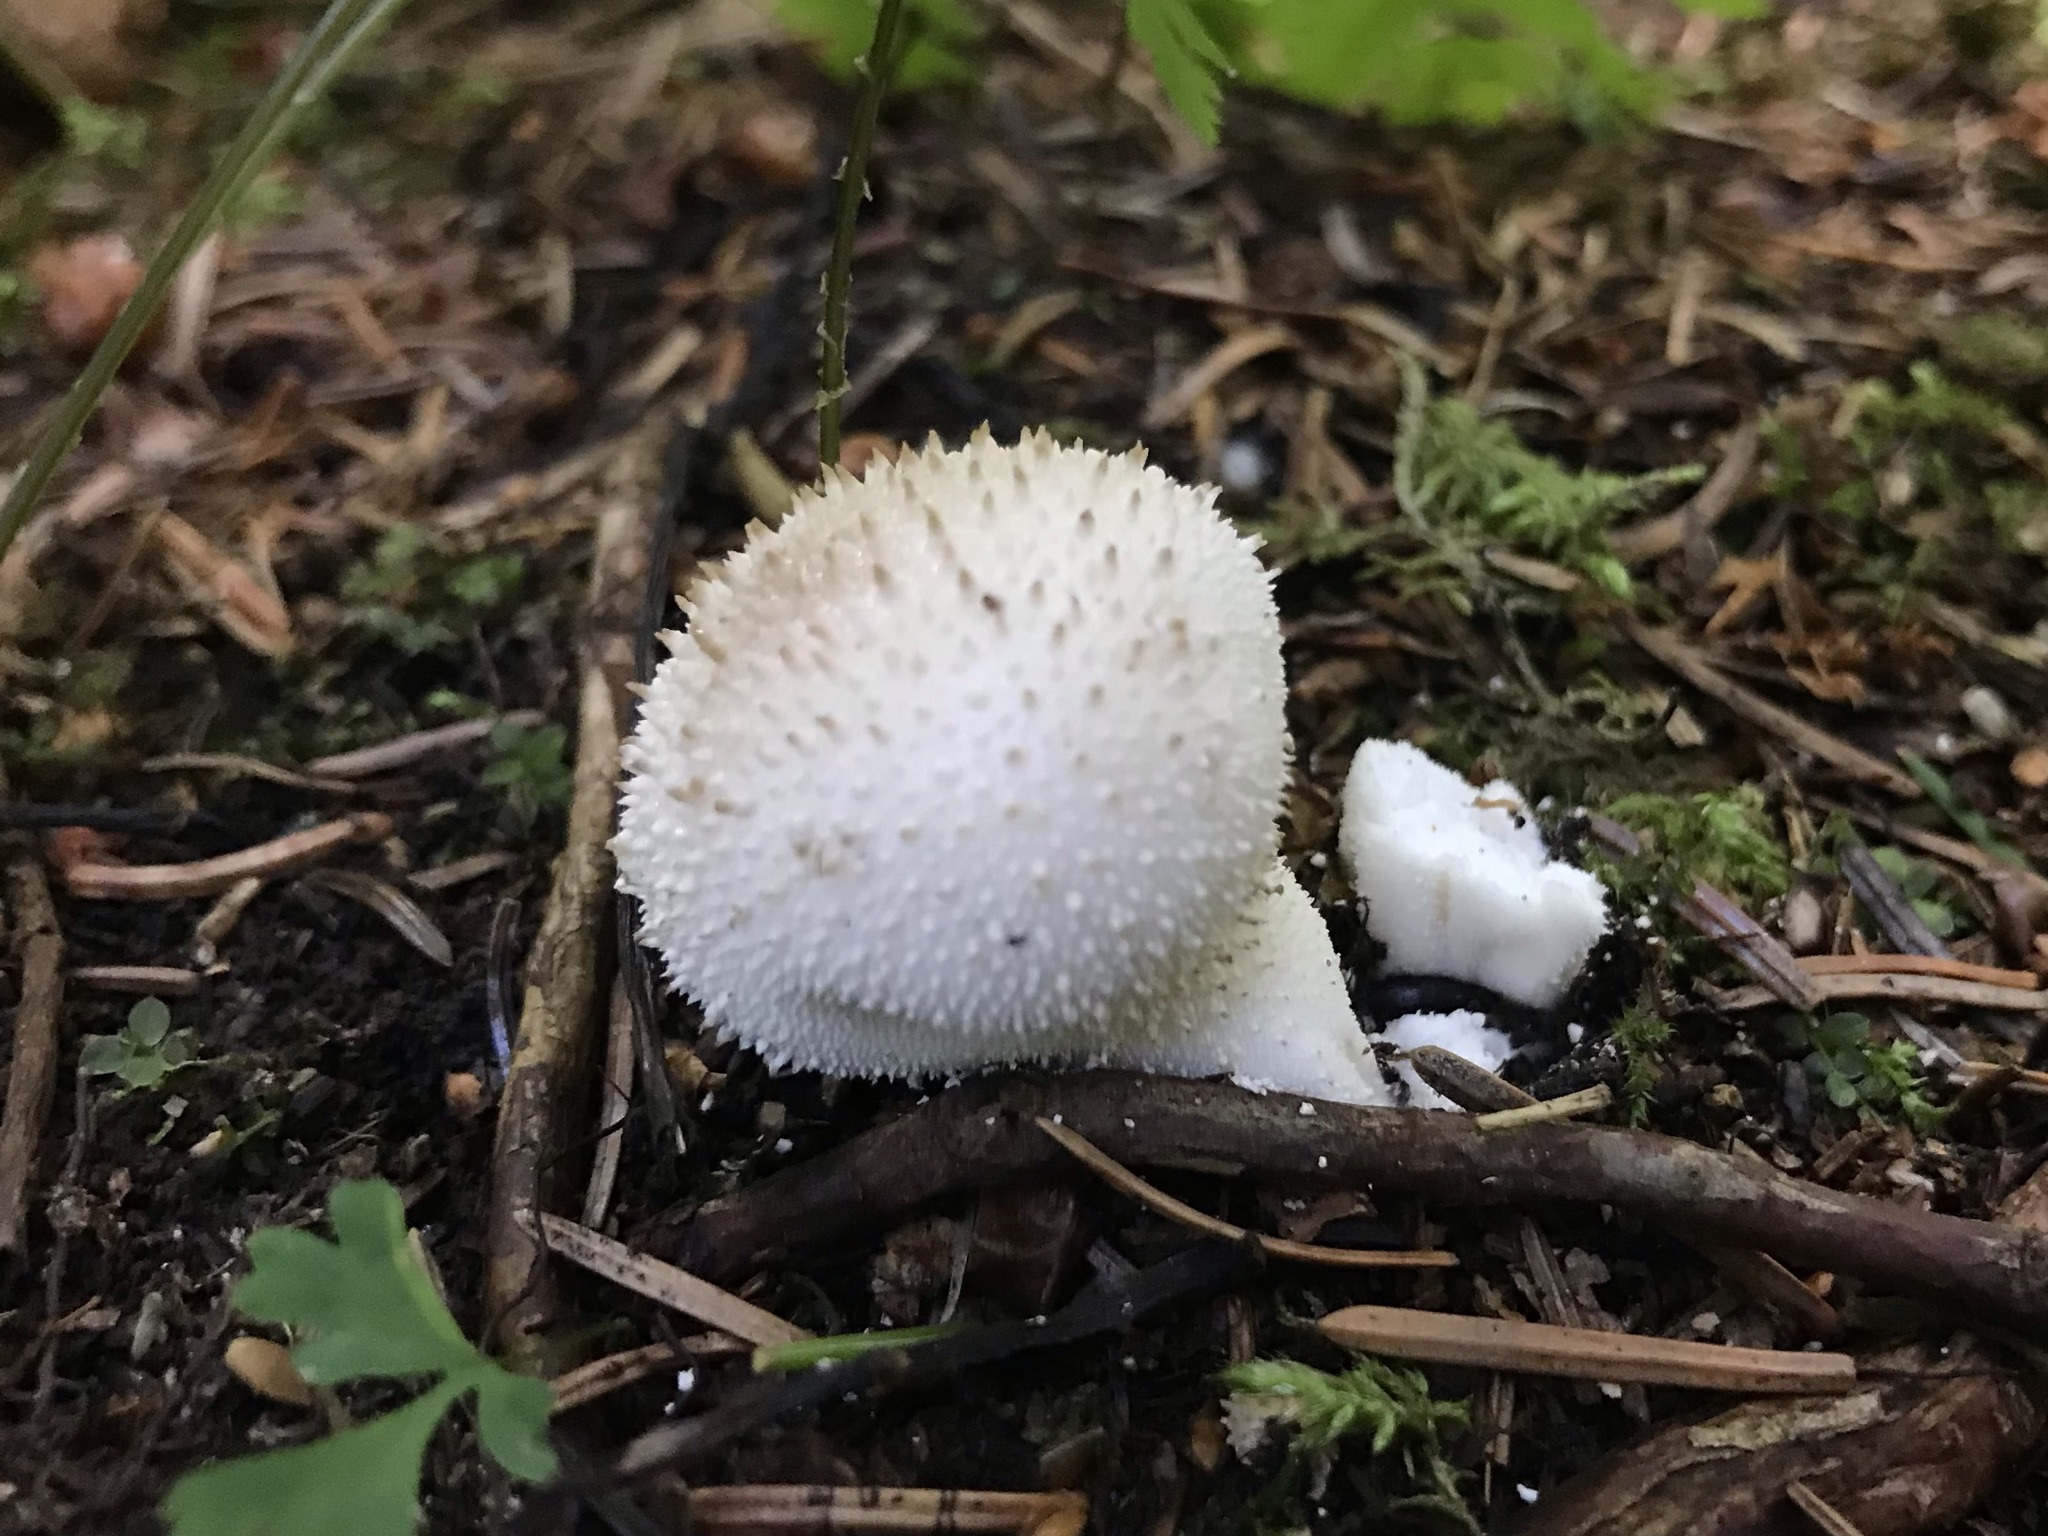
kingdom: Fungi
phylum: Basidiomycota
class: Agaricomycetes
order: Agaricales
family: Lycoperdaceae
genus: Lycoperdon
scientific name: Lycoperdon perlatum
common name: Common puffball
